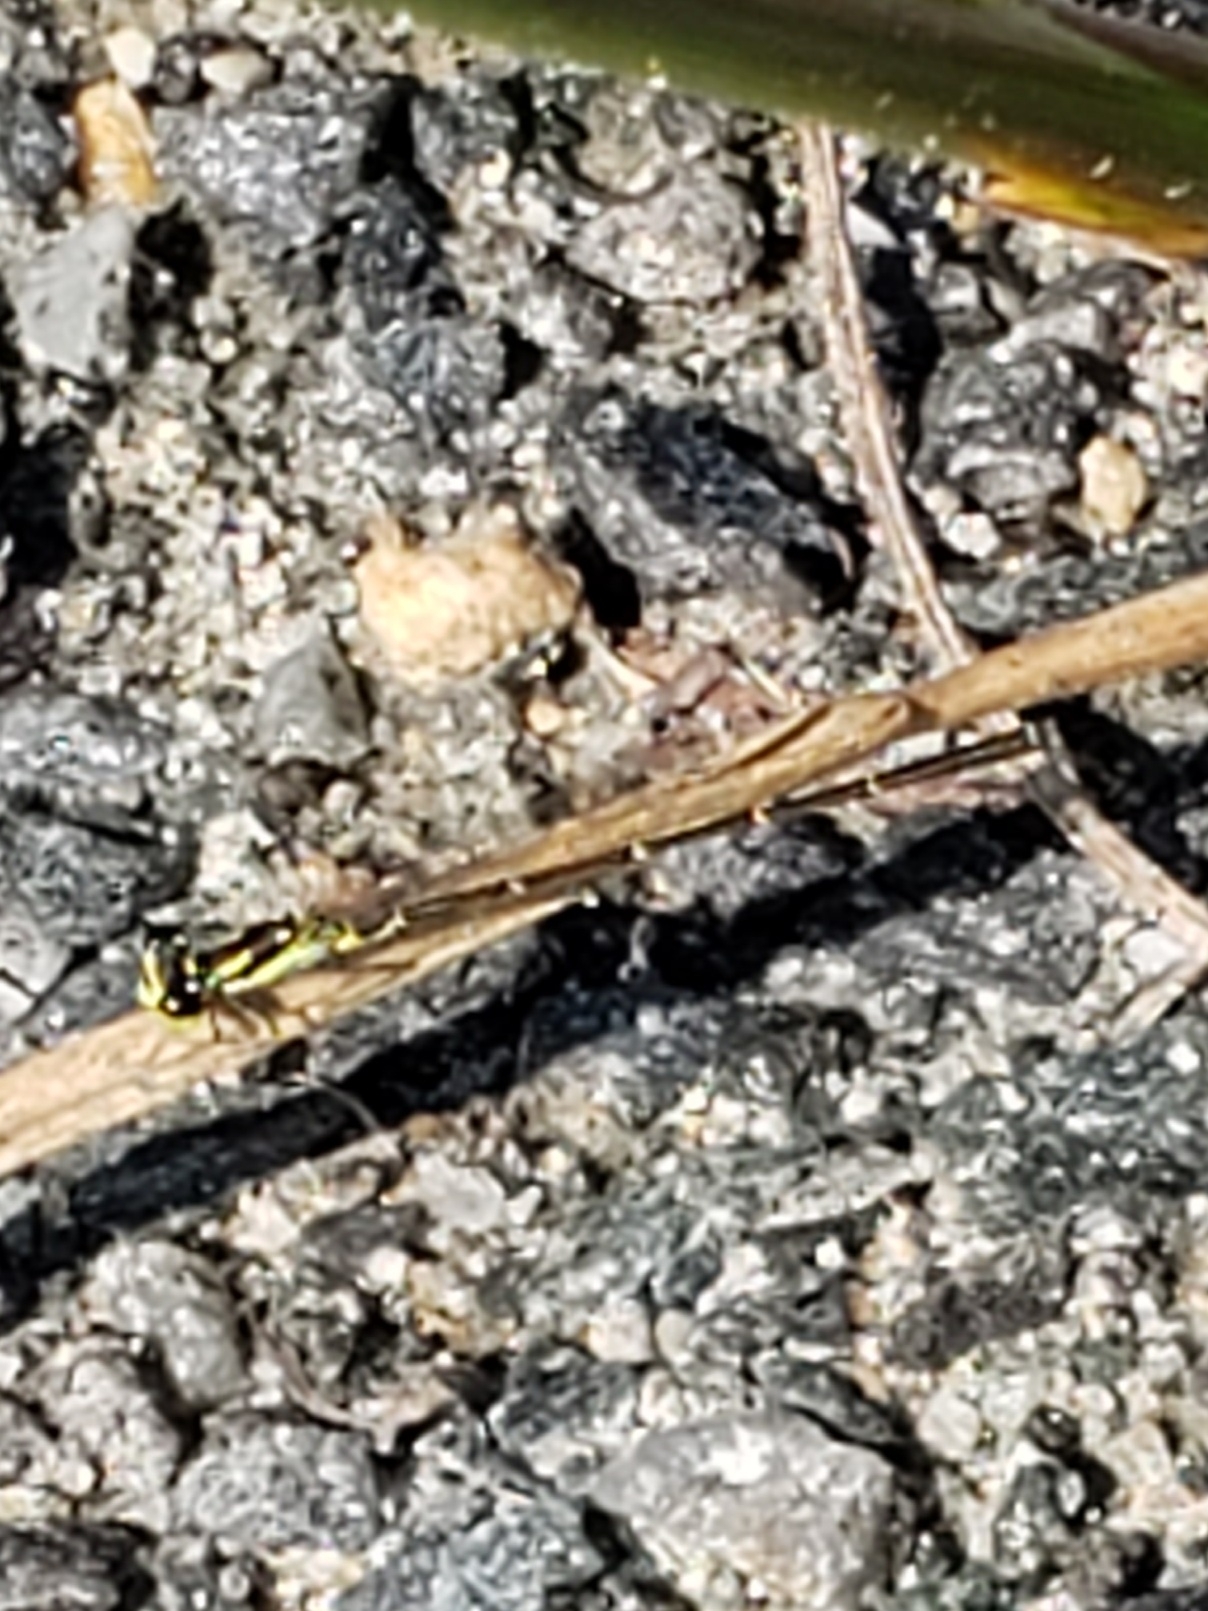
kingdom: Animalia
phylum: Arthropoda
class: Insecta
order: Odonata
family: Coenagrionidae
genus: Ischnura
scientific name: Ischnura posita
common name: Fragile forktail
